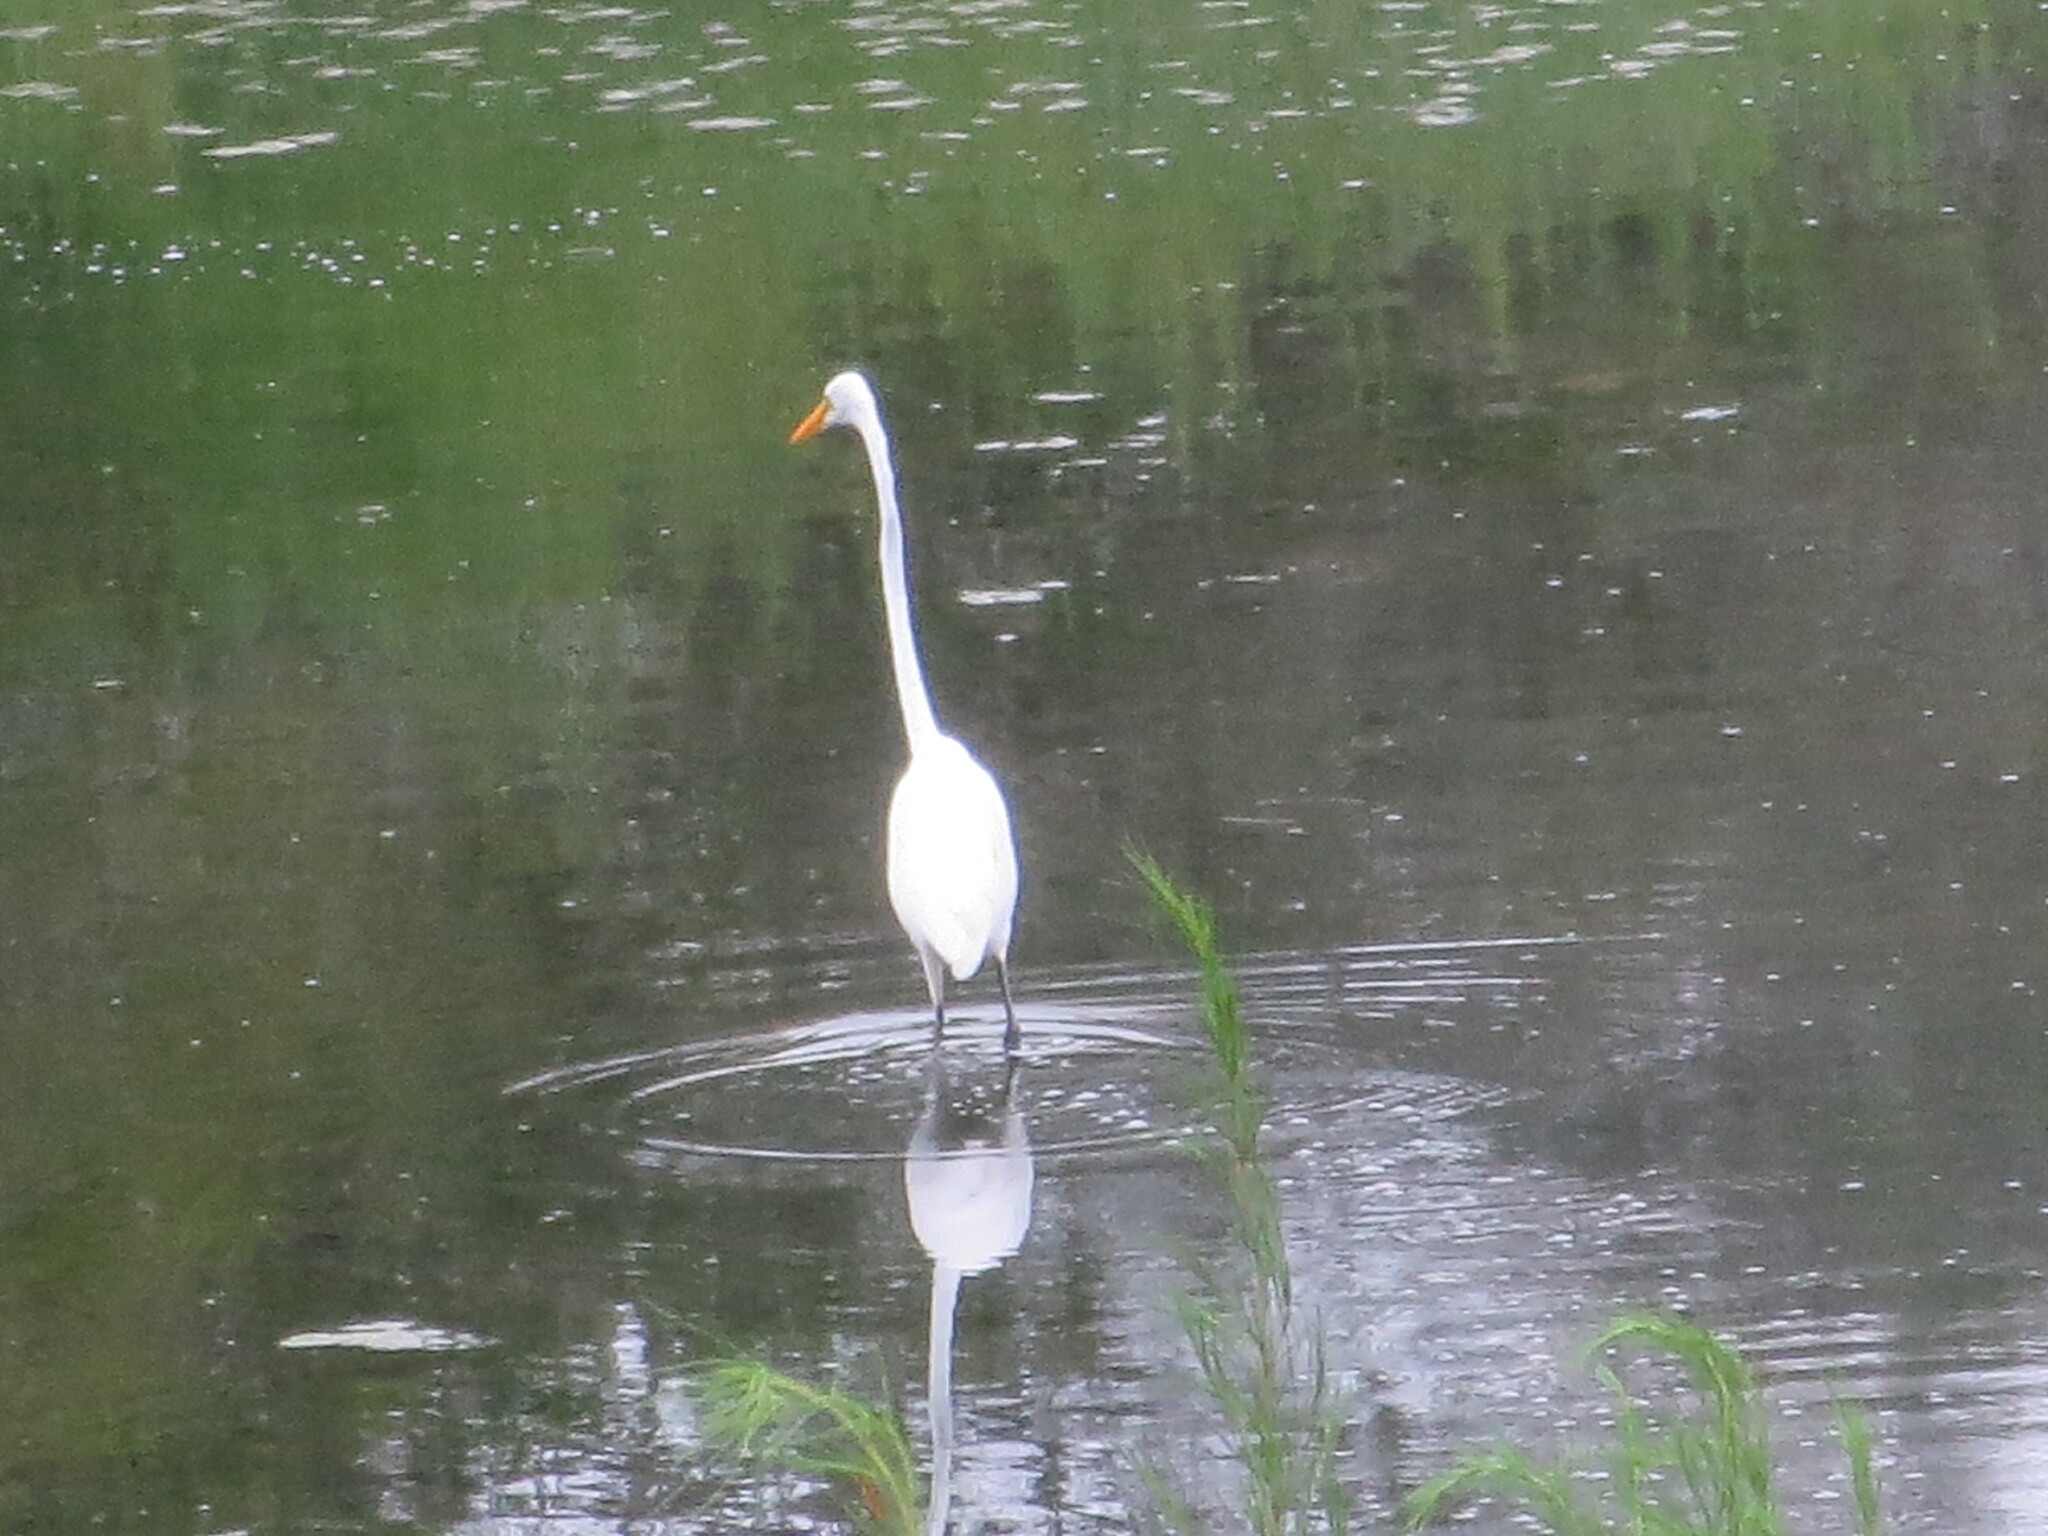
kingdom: Animalia
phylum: Chordata
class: Aves
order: Pelecaniformes
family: Ardeidae
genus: Ardea
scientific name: Ardea alba
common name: Great egret
